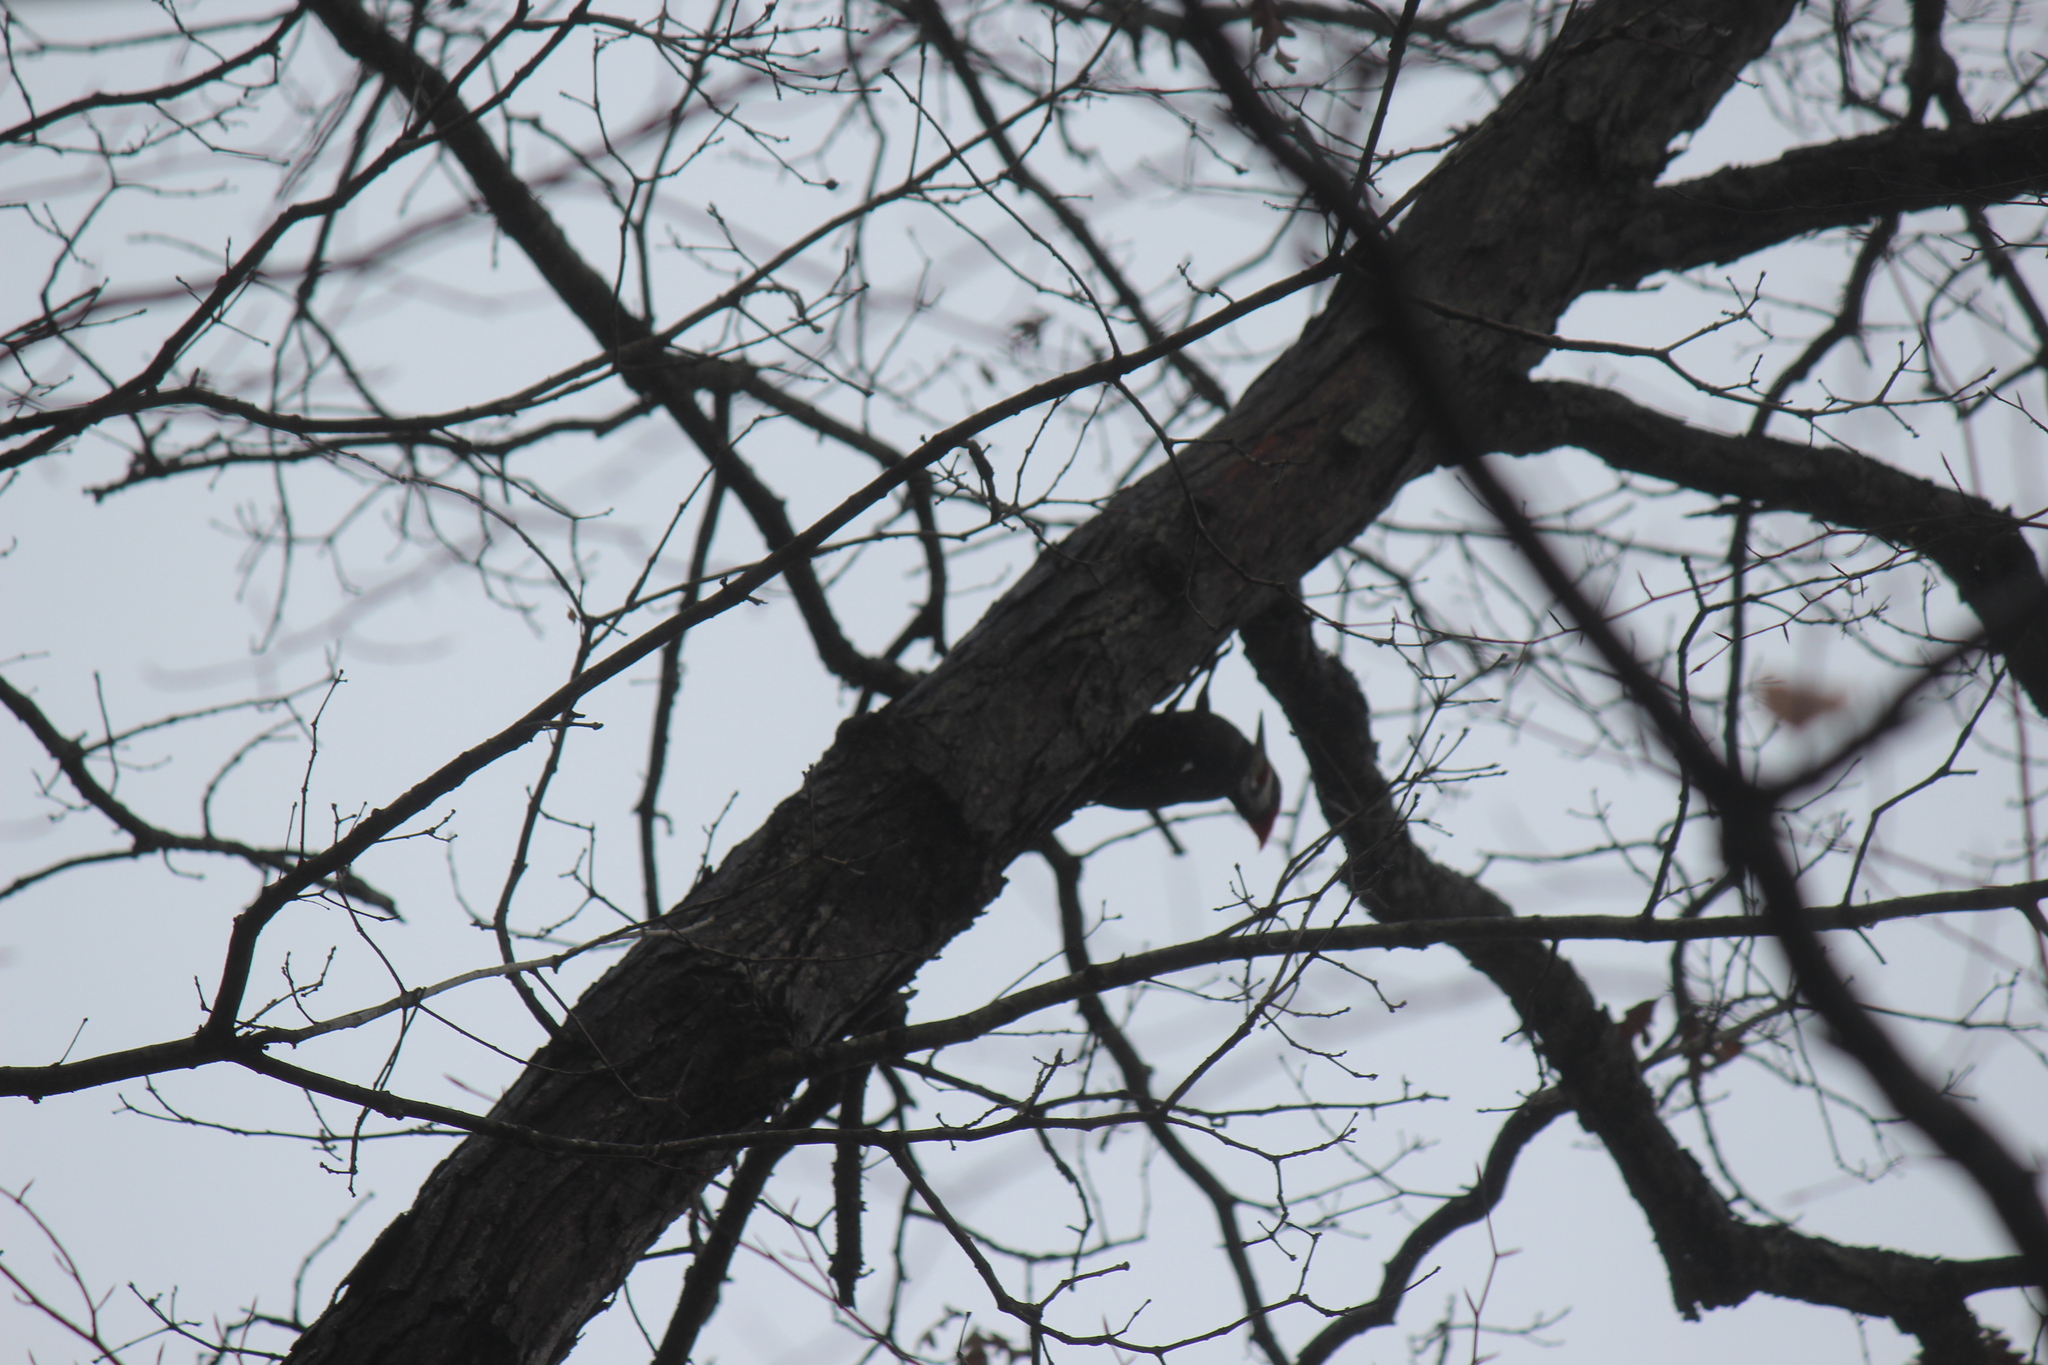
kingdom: Animalia
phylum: Chordata
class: Aves
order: Piciformes
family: Picidae
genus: Dryocopus
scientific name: Dryocopus pileatus
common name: Pileated woodpecker
